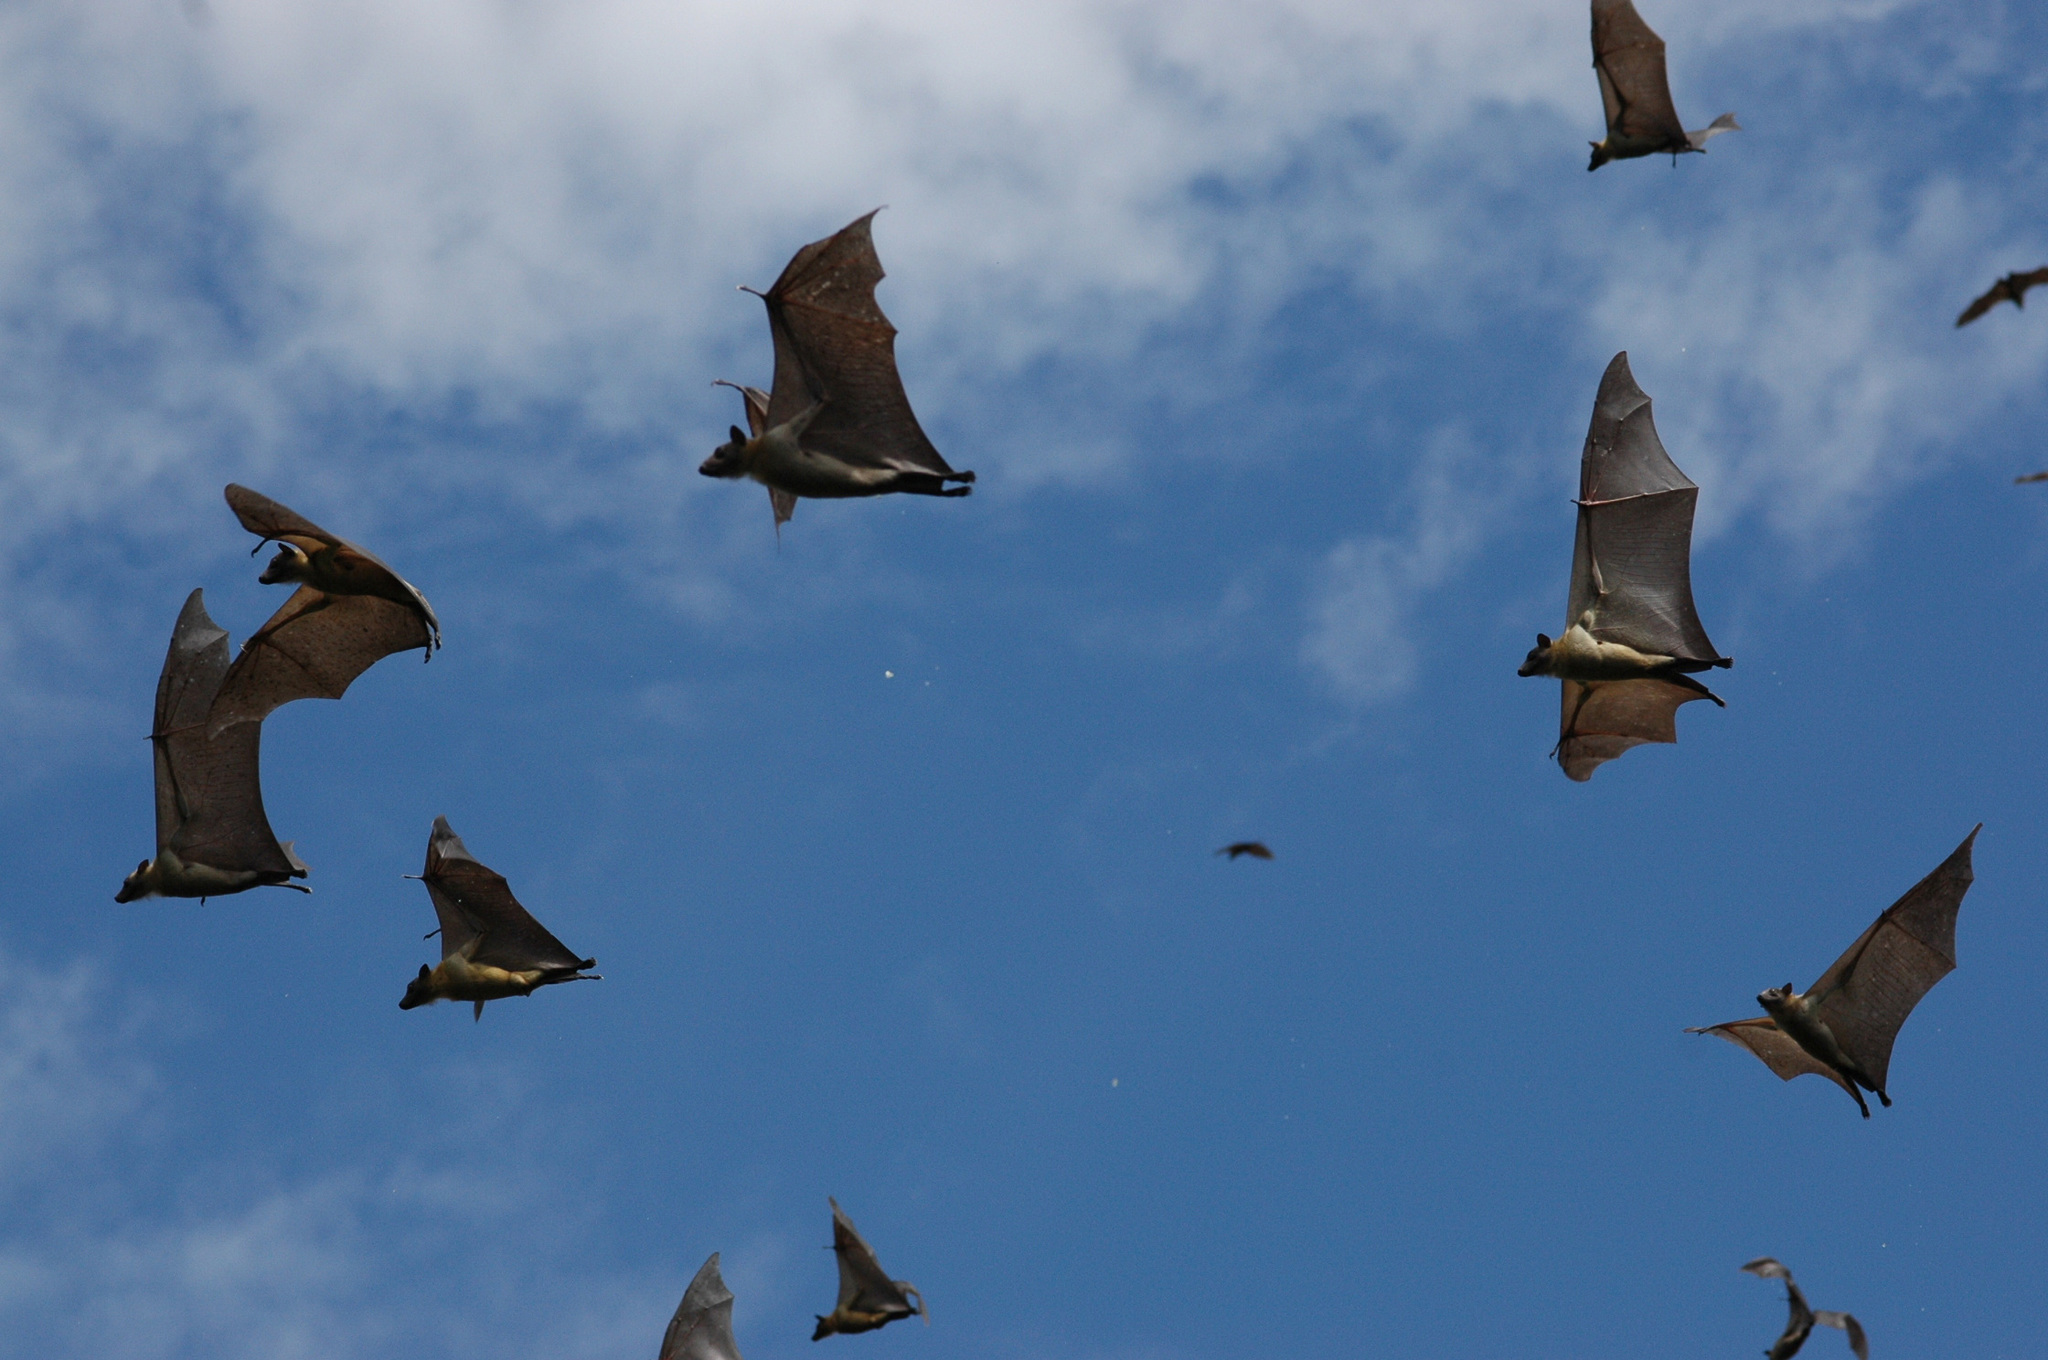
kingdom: Animalia
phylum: Chordata
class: Mammalia
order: Chiroptera
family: Pteropodidae
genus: Eidolon
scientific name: Eidolon helvum
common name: Straw-colored fruit bat
